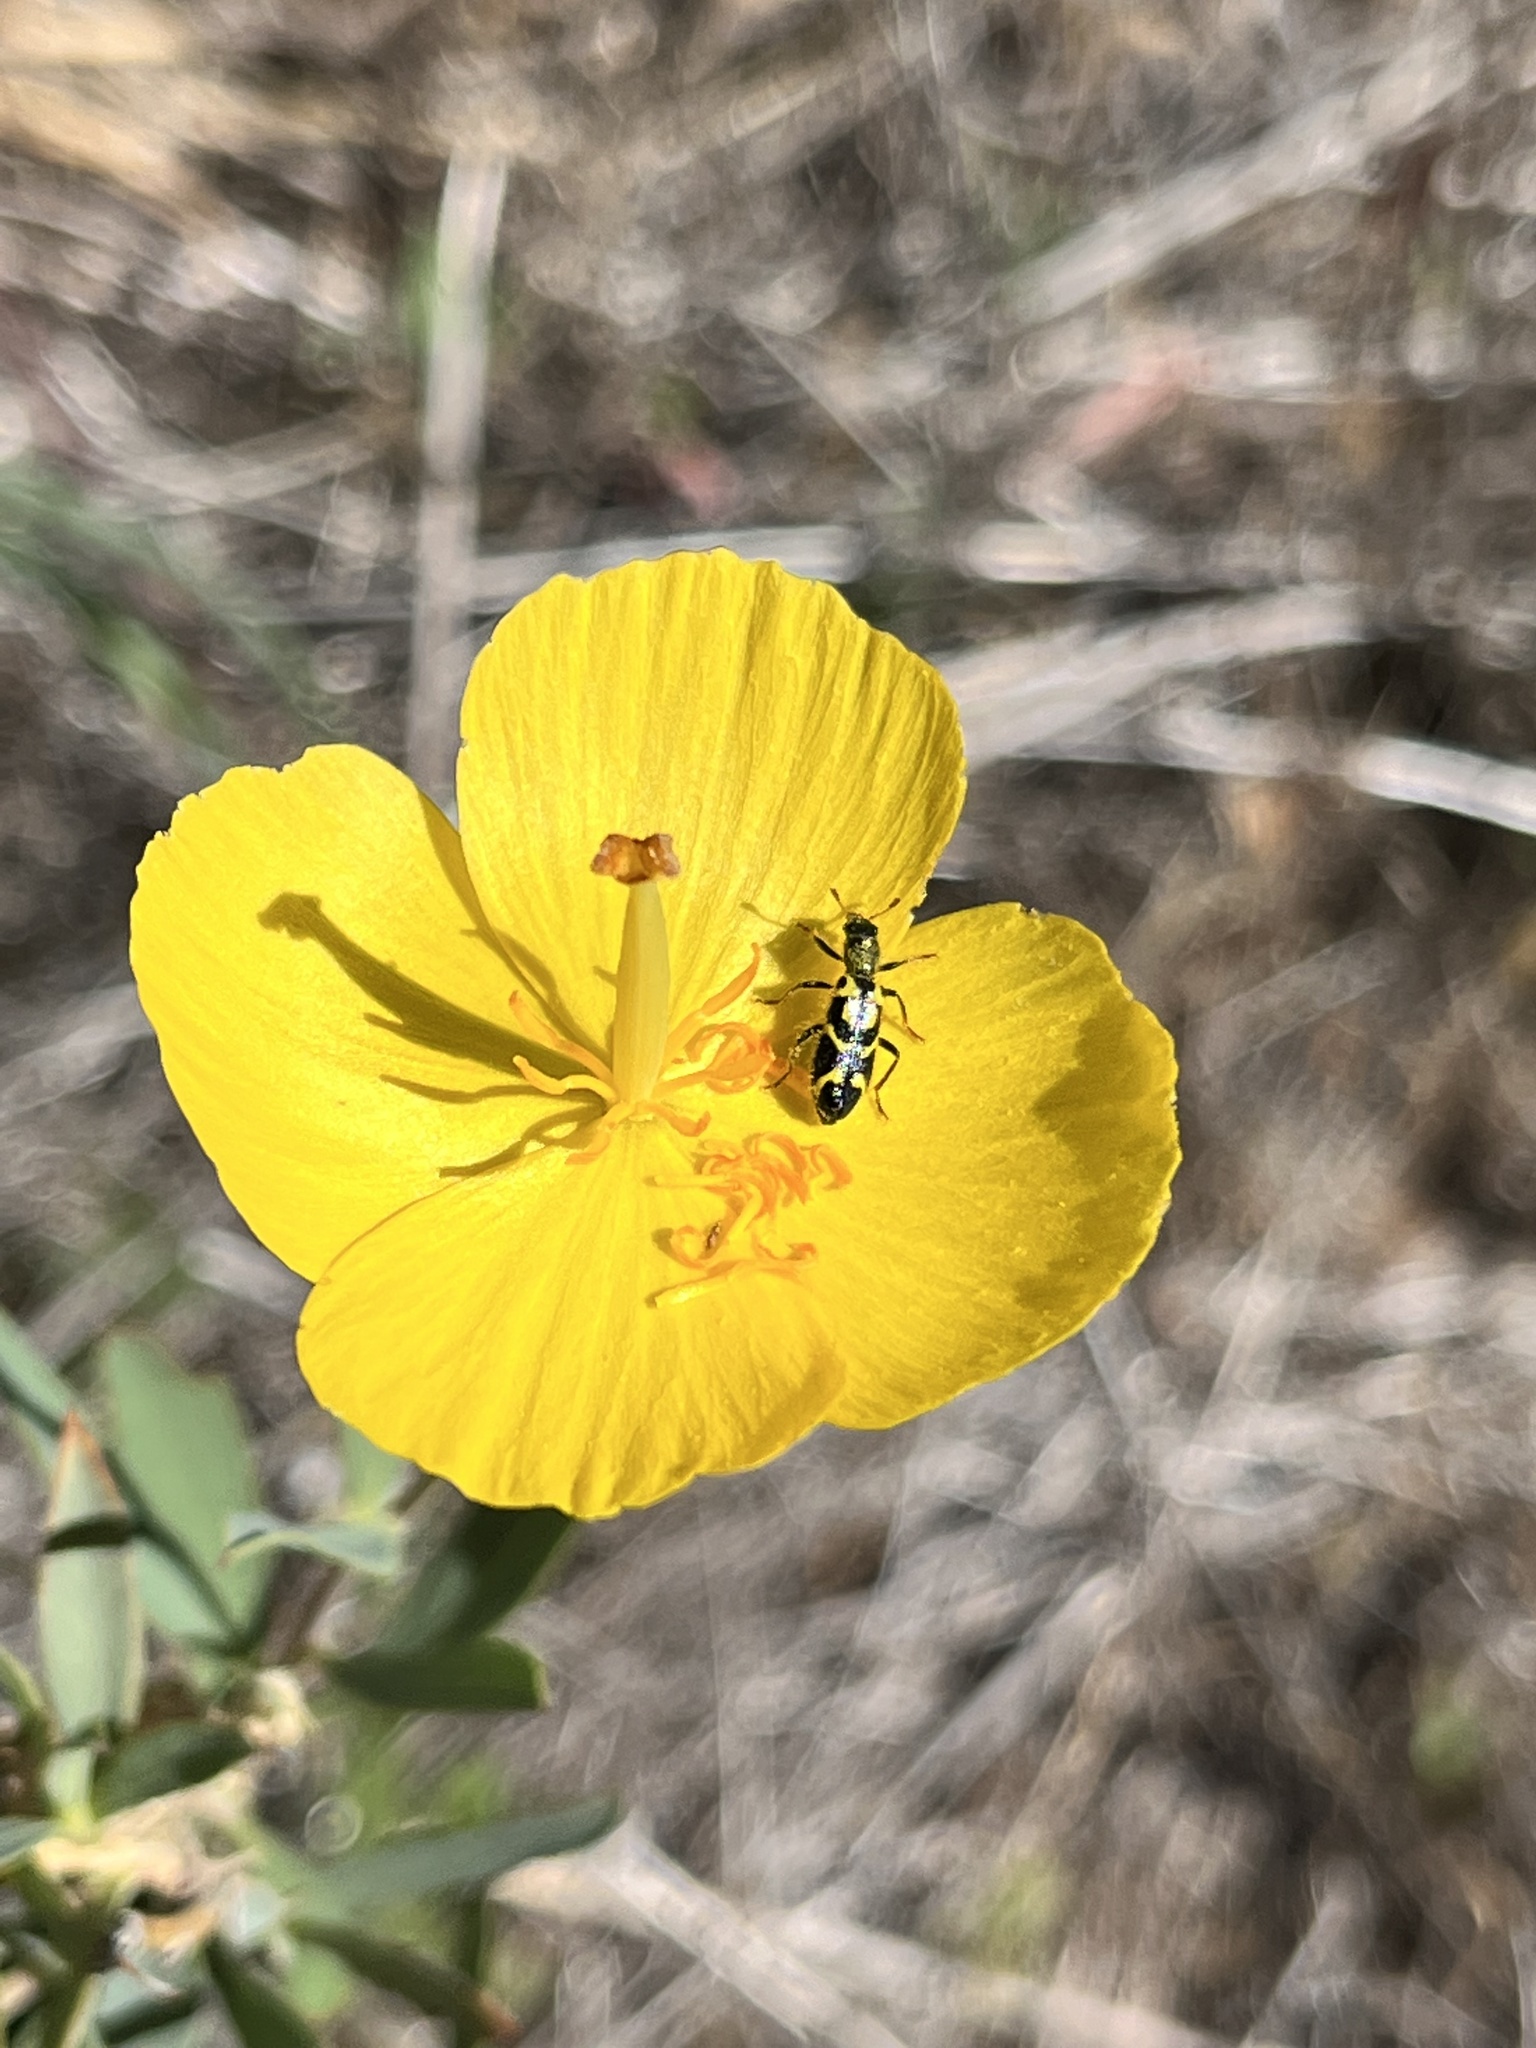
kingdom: Animalia
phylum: Arthropoda
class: Insecta
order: Coleoptera
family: Cleridae
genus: Trichodes
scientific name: Trichodes ornatus
